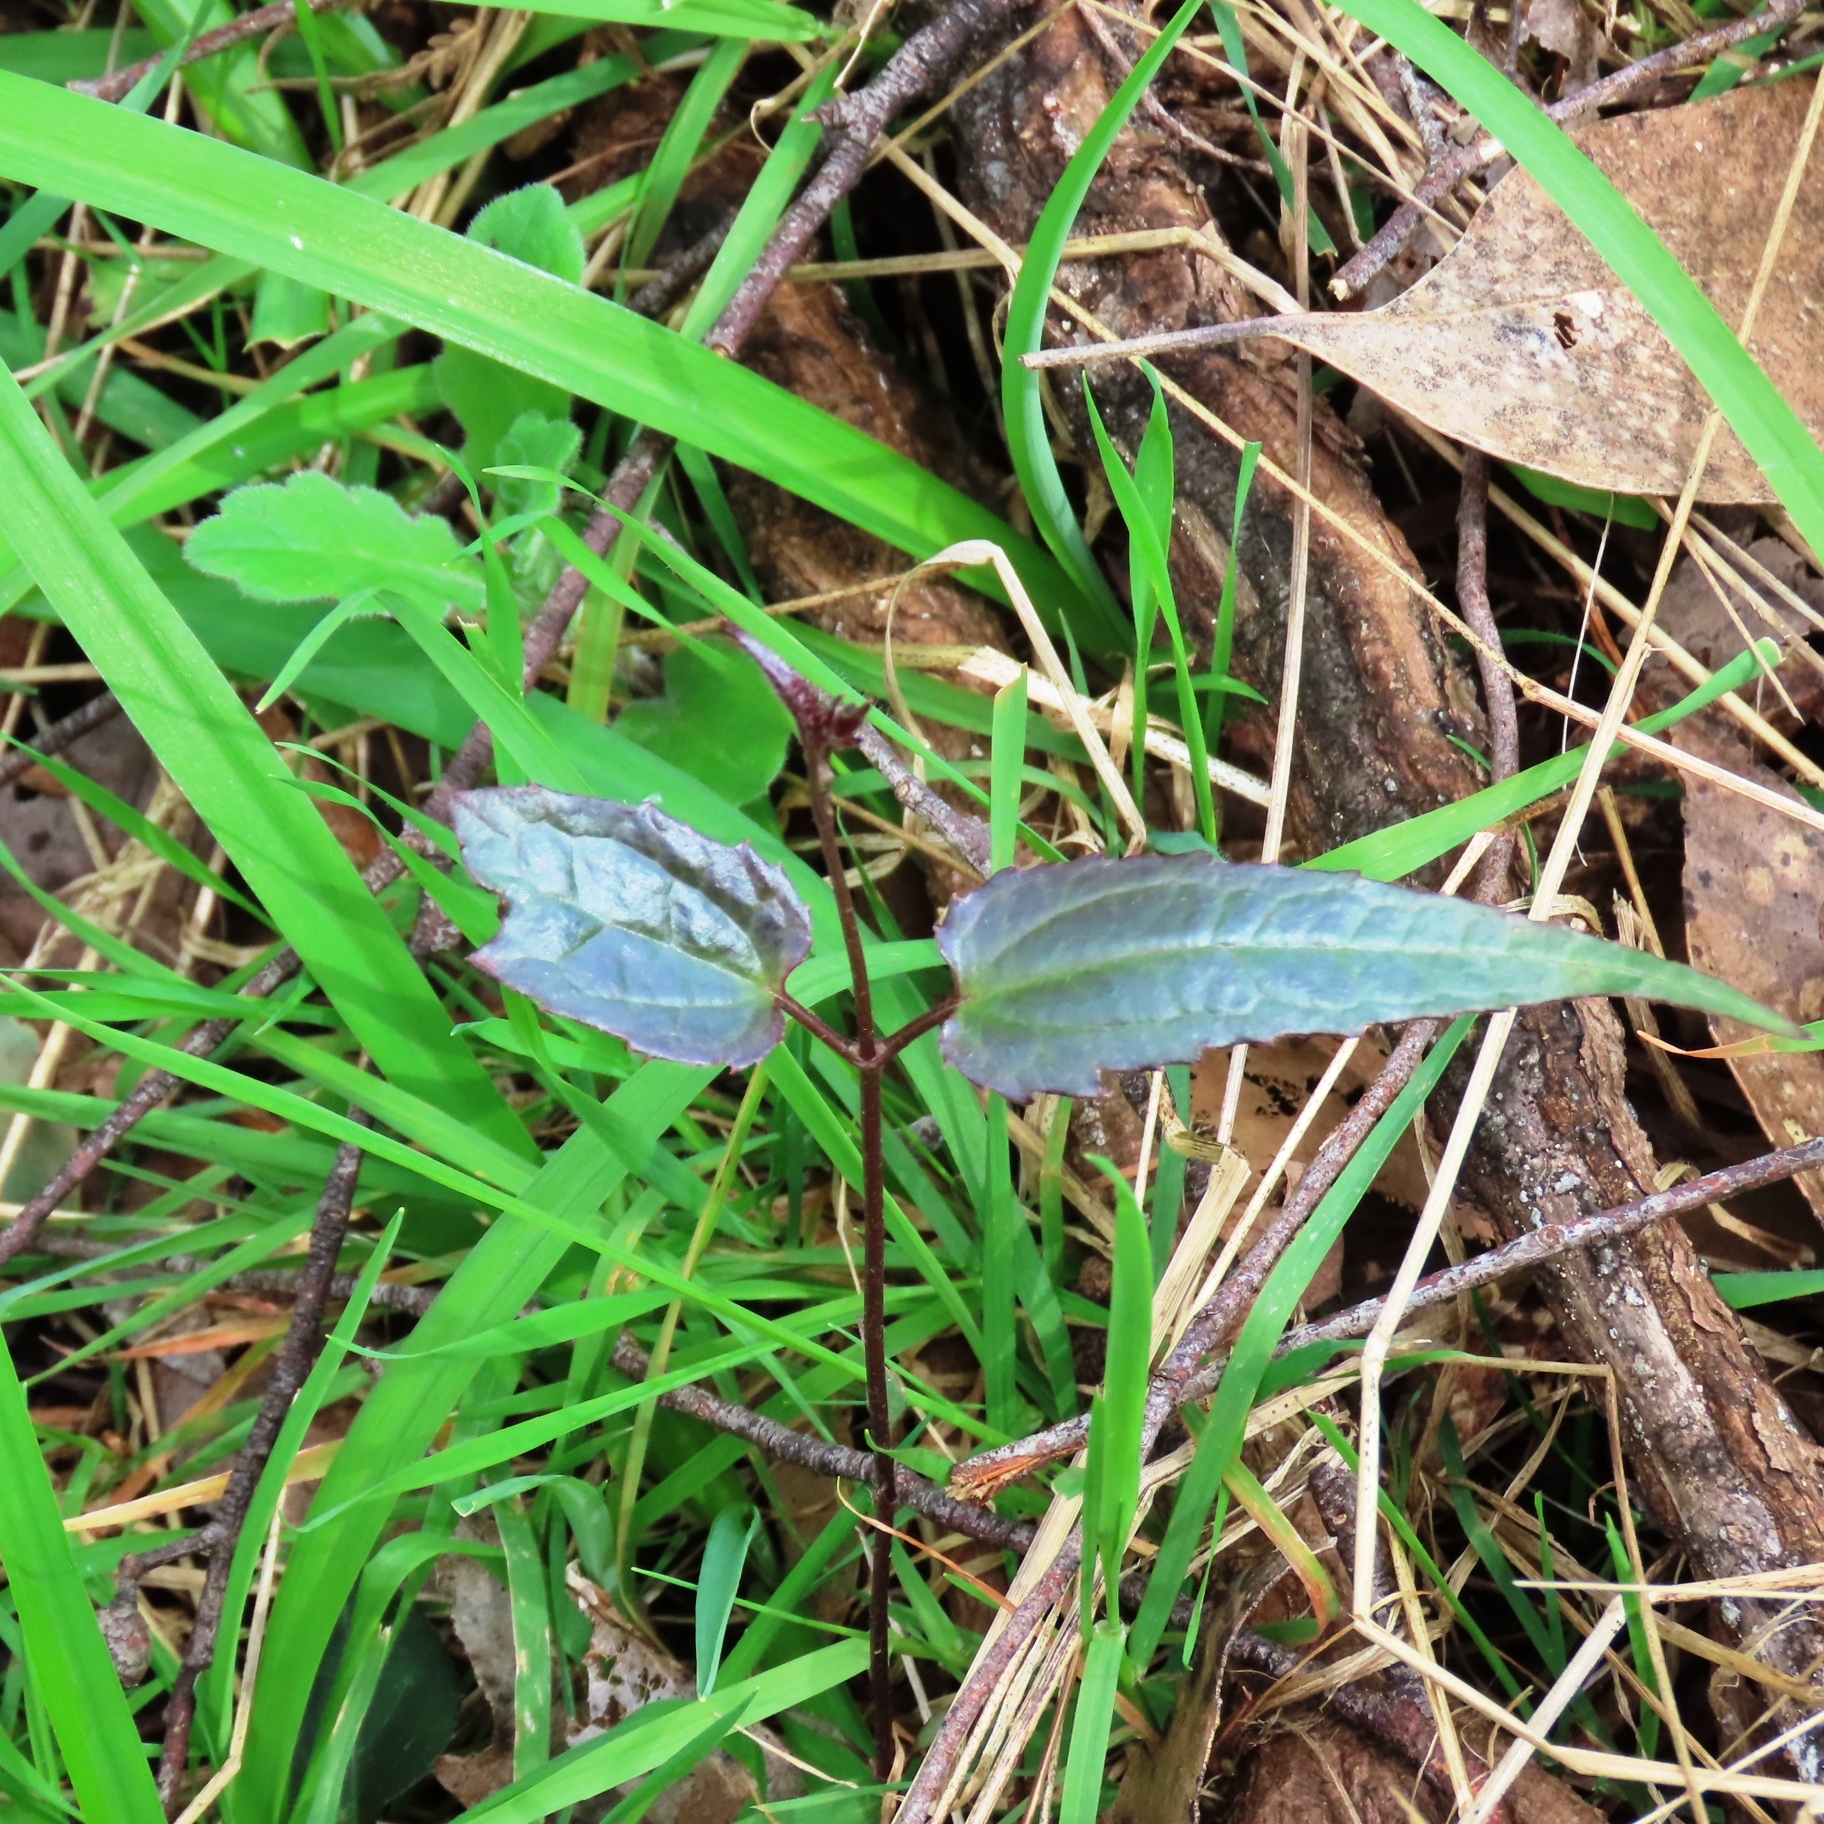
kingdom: Plantae
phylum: Tracheophyta
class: Magnoliopsida
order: Ranunculales
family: Ranunculaceae
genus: Clematis
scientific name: Clematis aristata
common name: Mountain clematis
